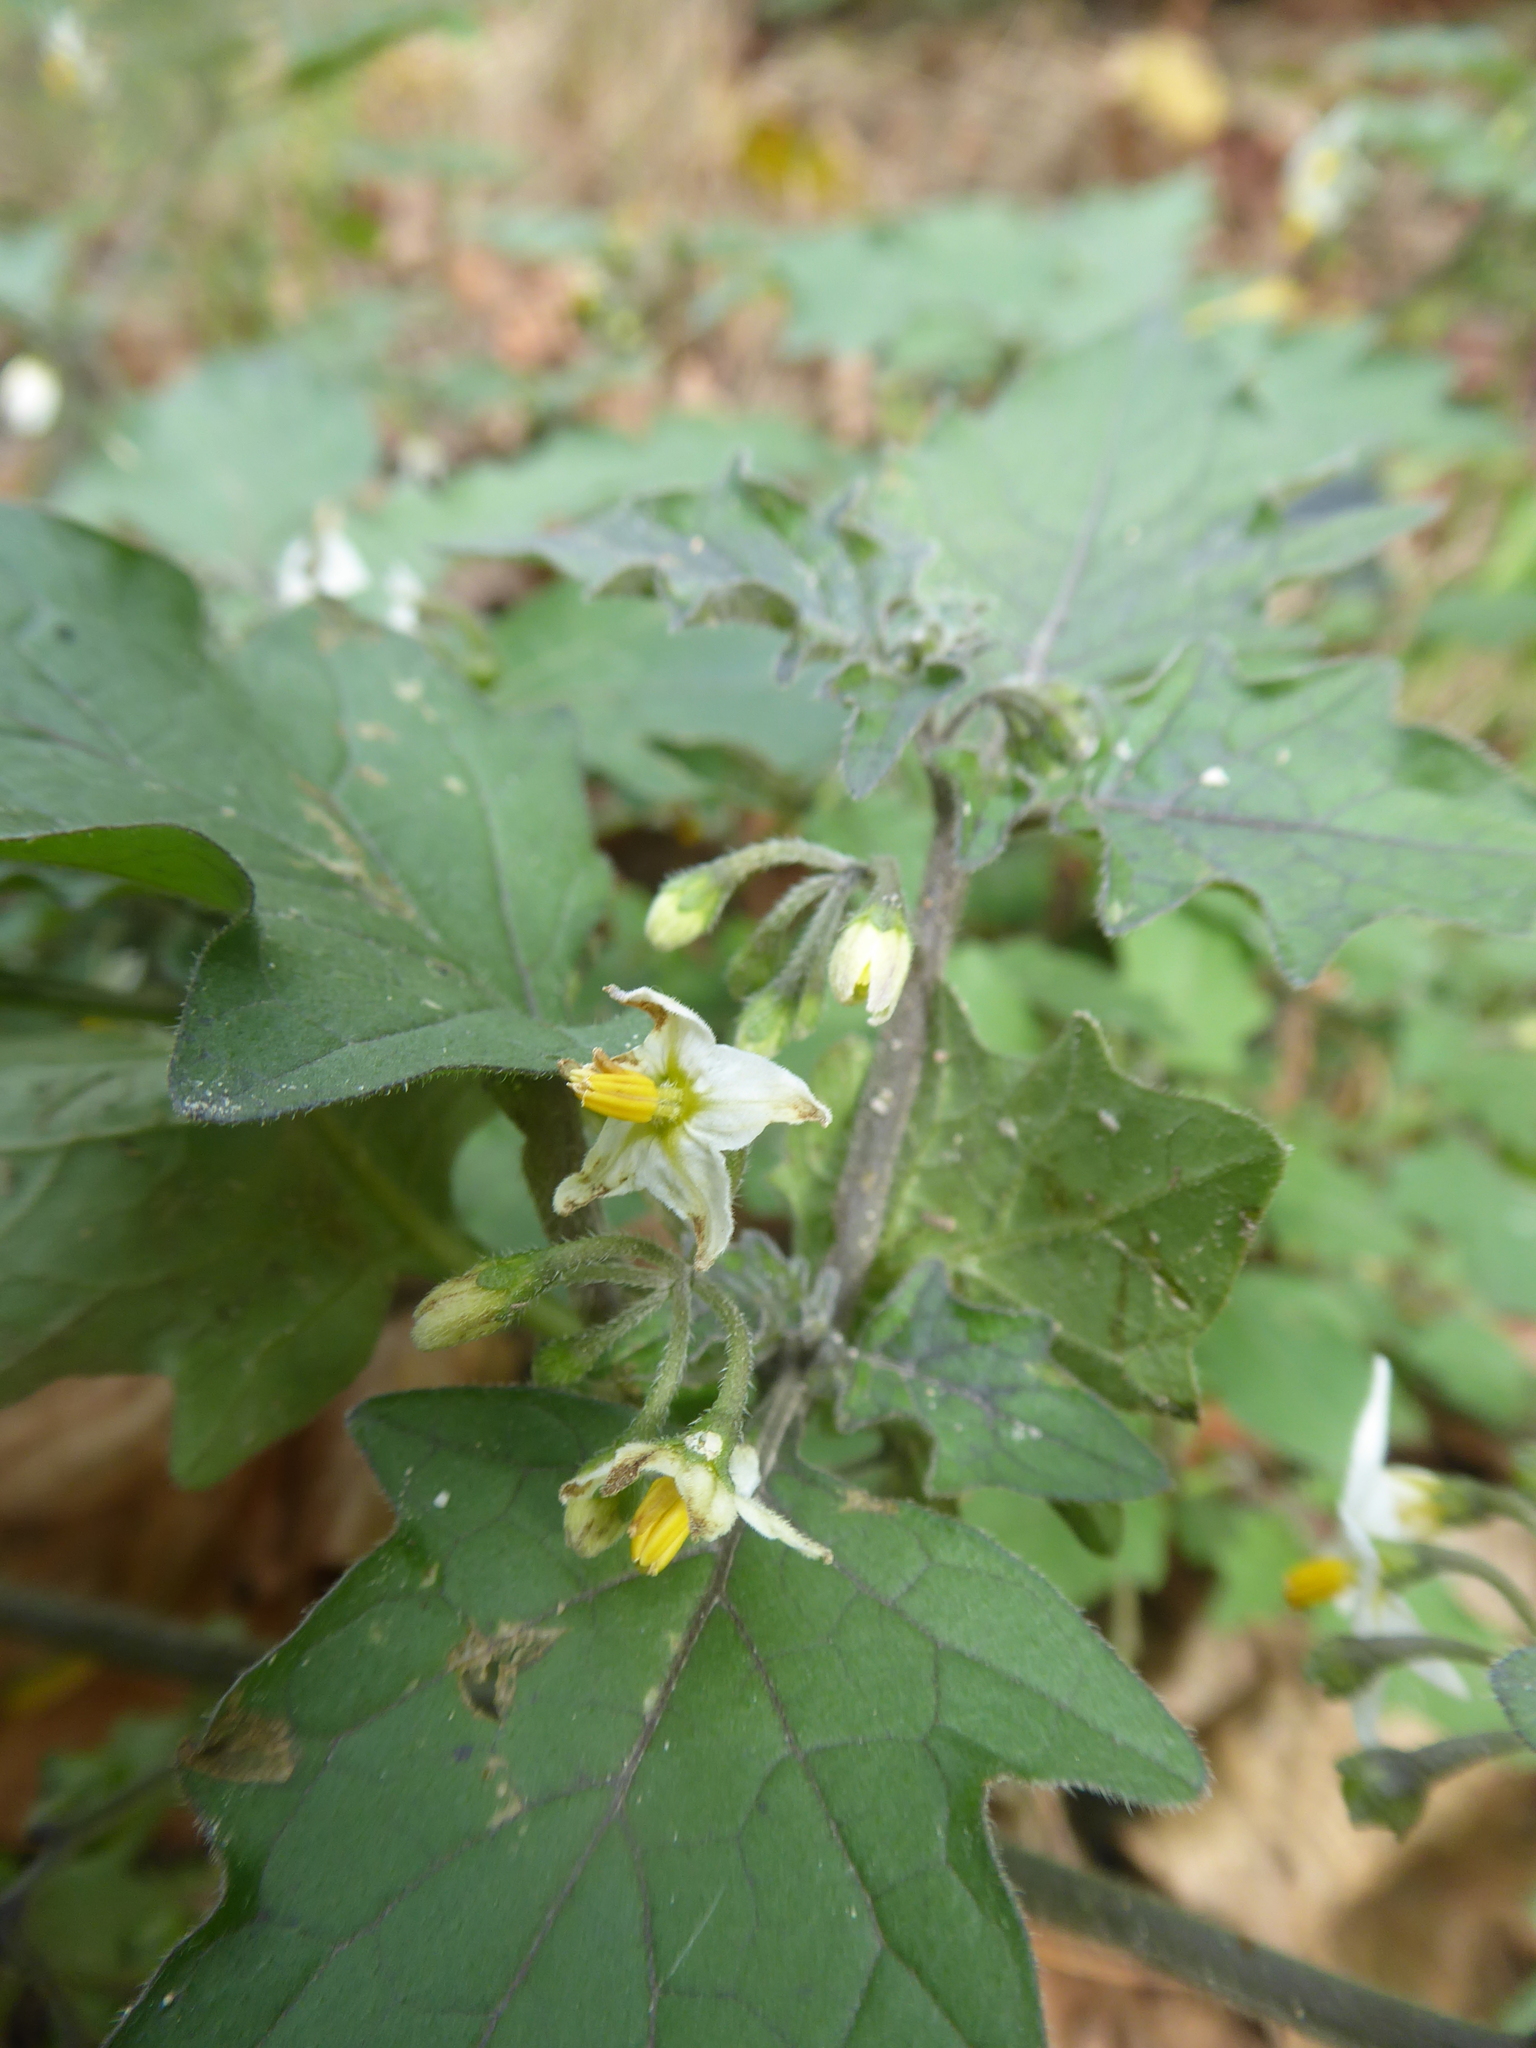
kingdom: Plantae
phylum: Tracheophyta
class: Magnoliopsida
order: Solanales
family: Solanaceae
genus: Solanum
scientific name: Solanum nigrum
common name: Black nightshade
